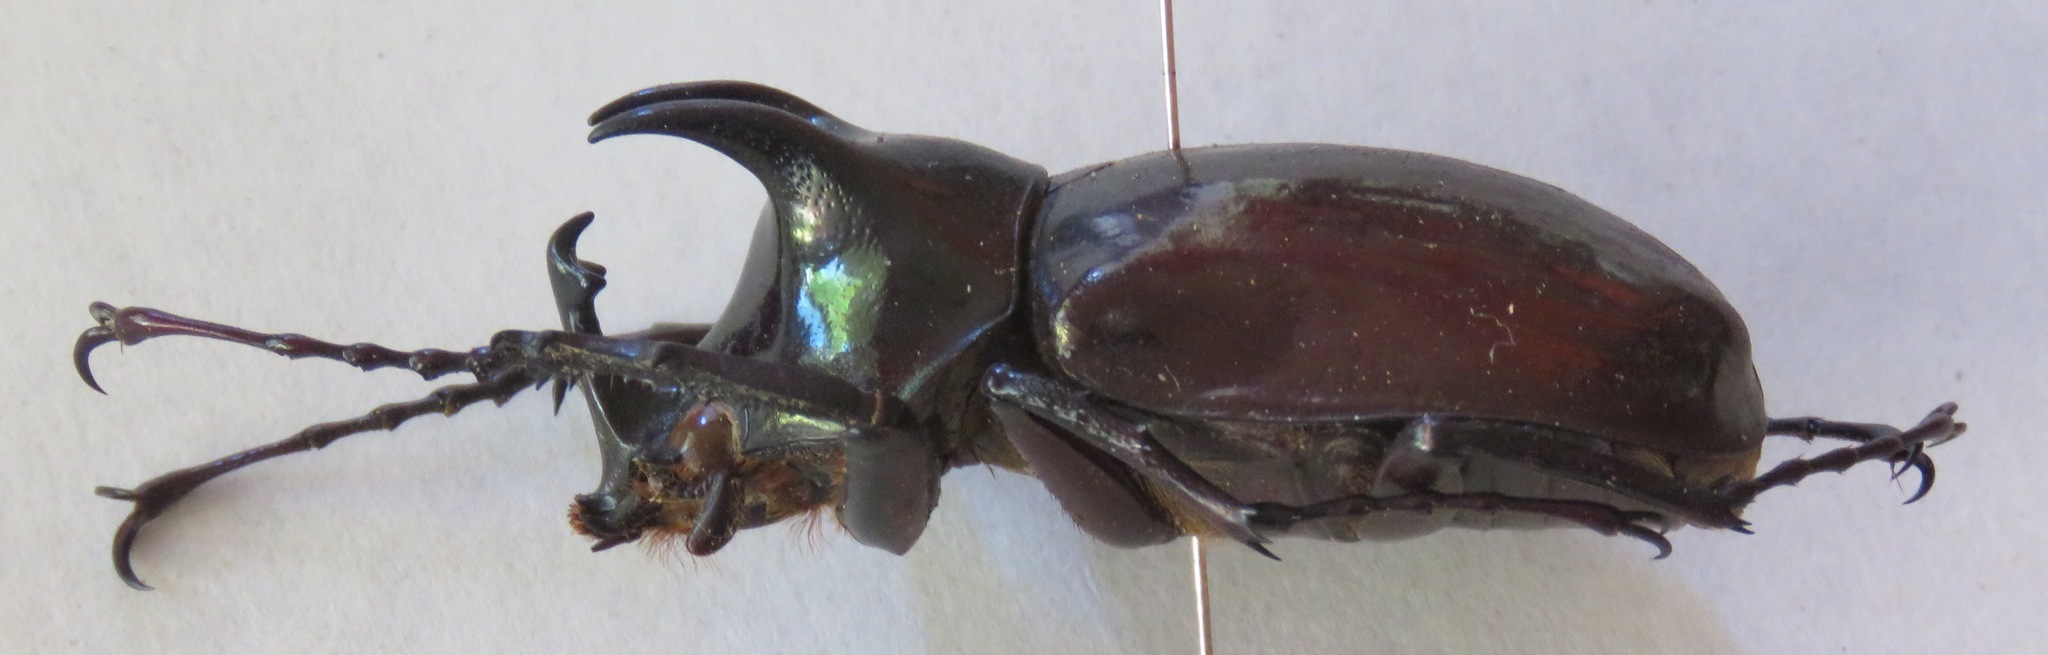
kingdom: Animalia
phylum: Arthropoda
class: Insecta
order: Coleoptera
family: Scarabaeidae
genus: Chalcosoma
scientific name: Chalcosoma atlas
